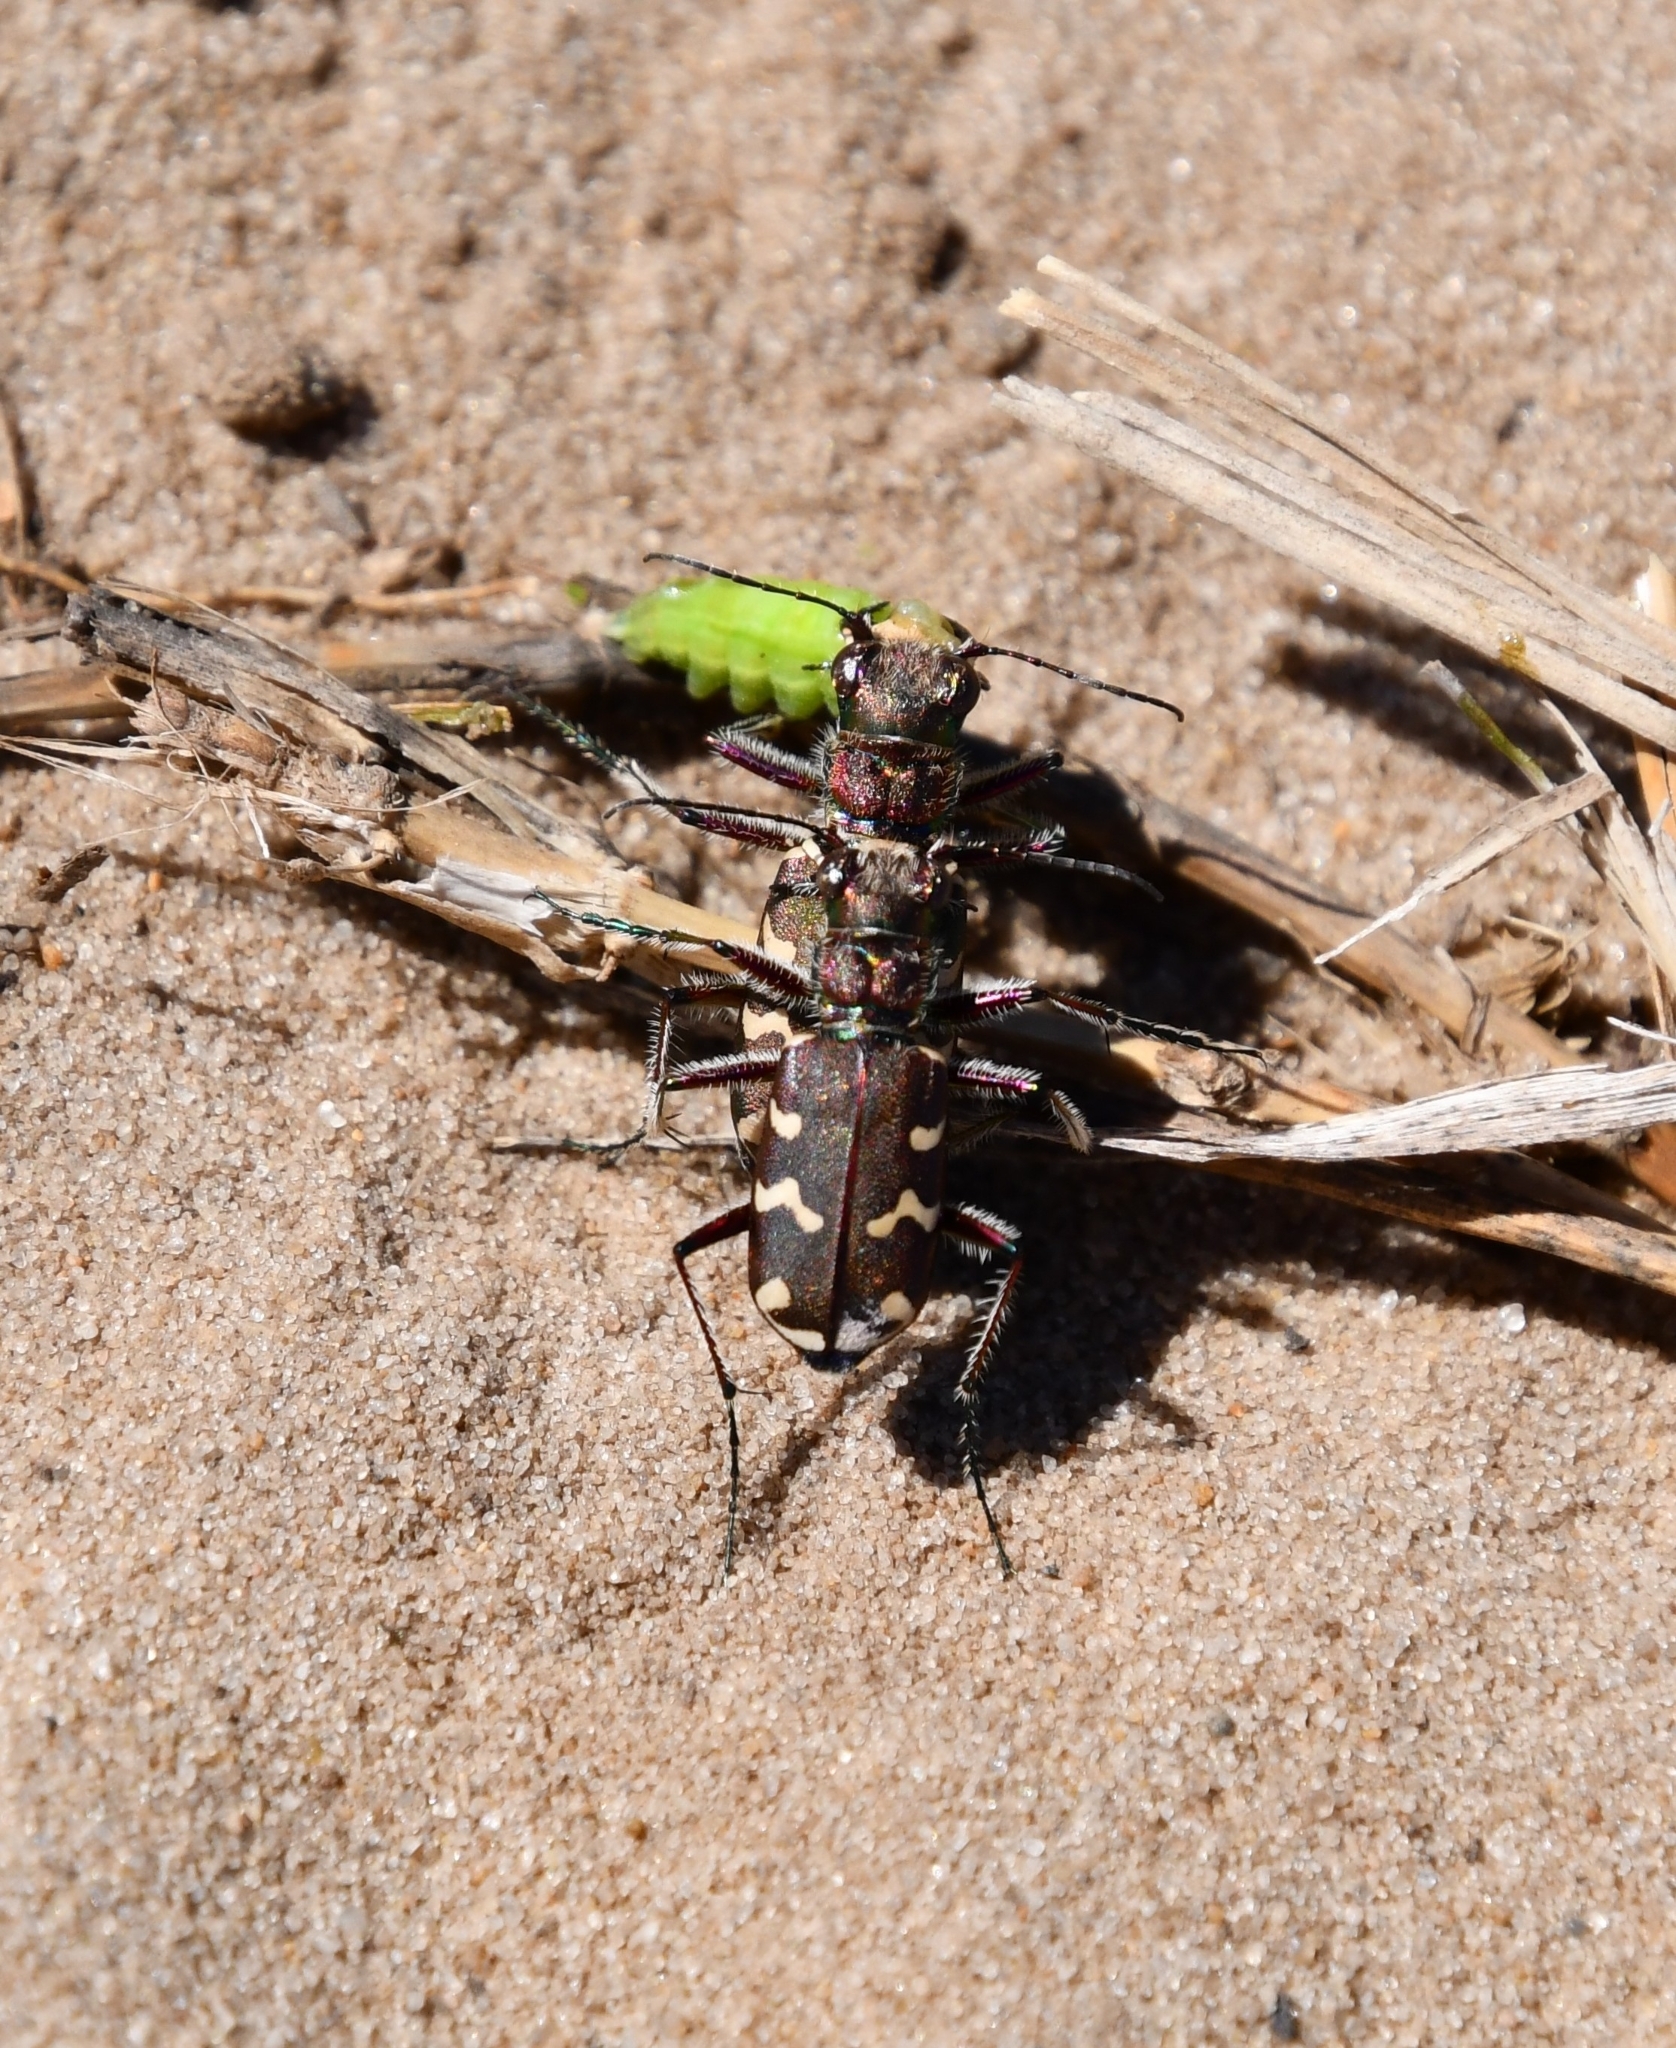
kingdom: Animalia
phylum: Arthropoda
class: Insecta
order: Coleoptera
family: Carabidae
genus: Cicindela
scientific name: Cicindela soluta
